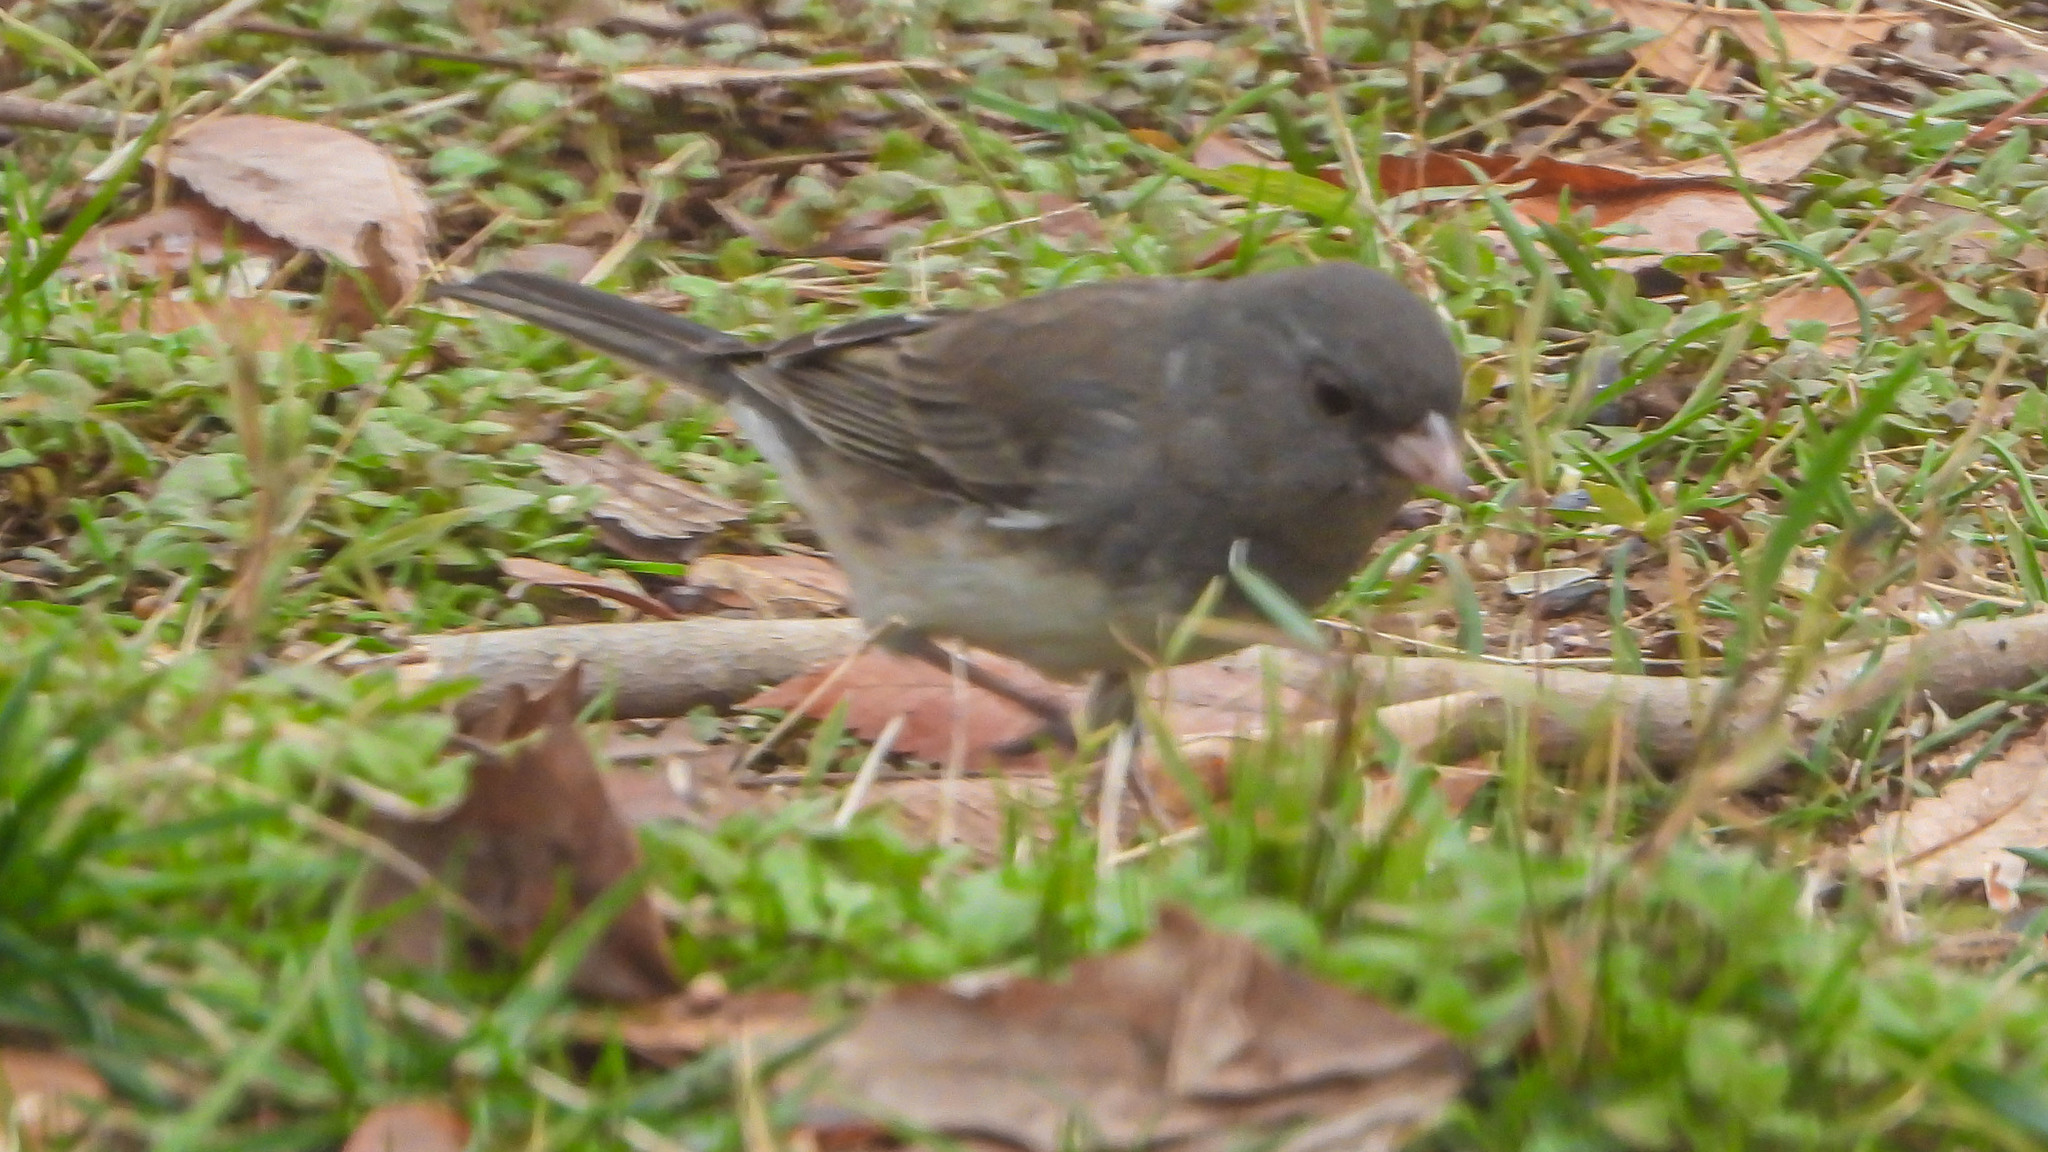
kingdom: Animalia
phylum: Chordata
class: Aves
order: Passeriformes
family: Passerellidae
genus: Junco
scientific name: Junco hyemalis
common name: Dark-eyed junco
